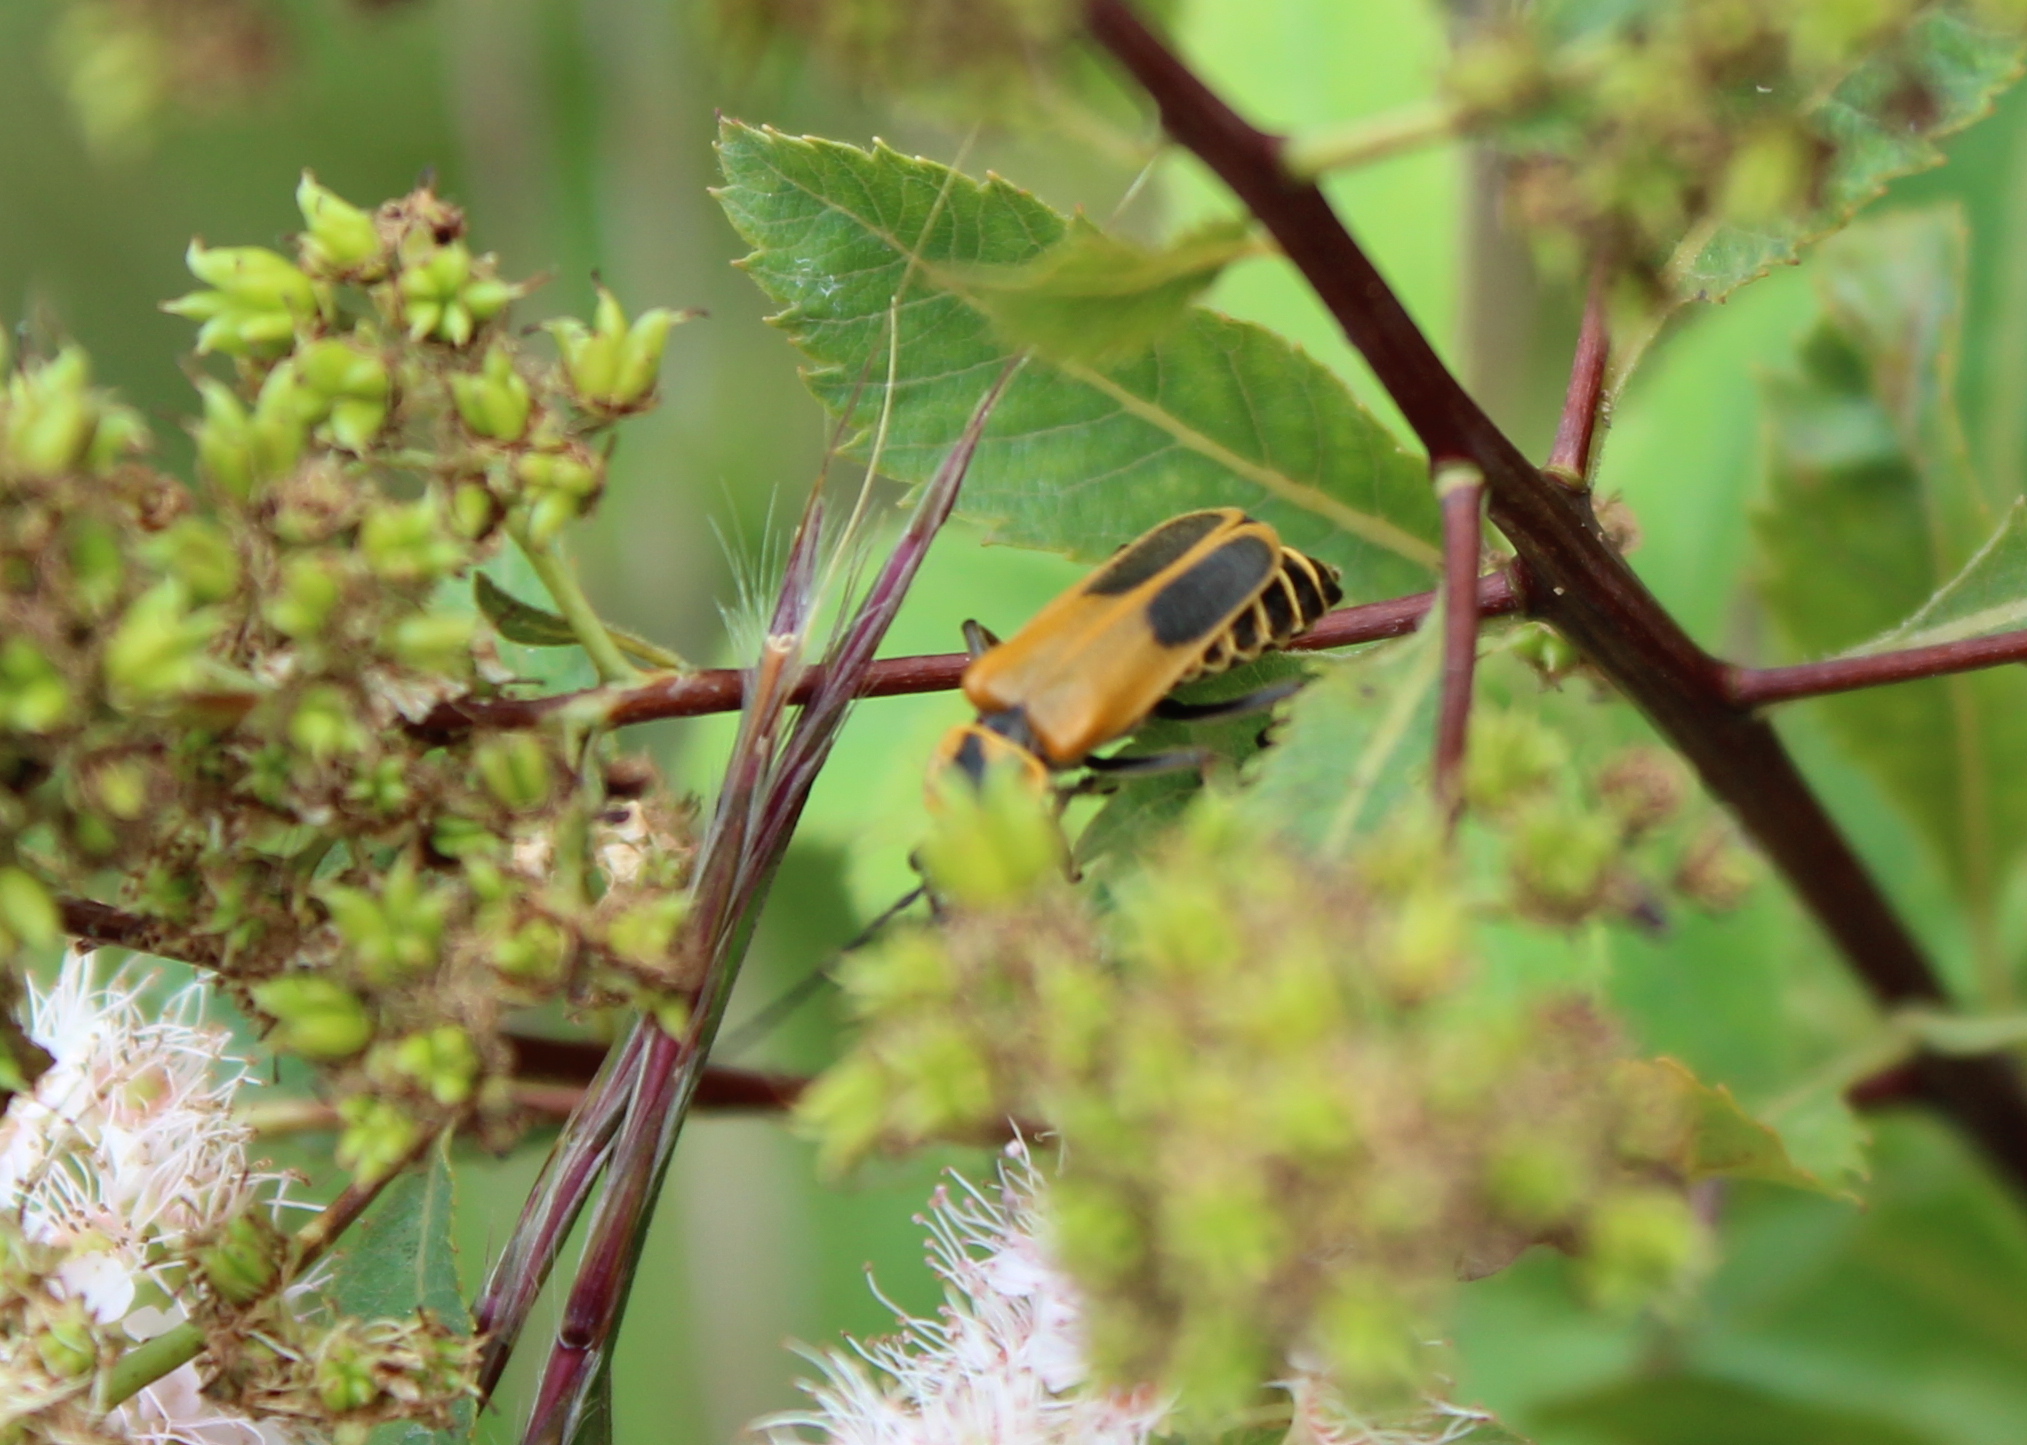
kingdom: Animalia
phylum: Arthropoda
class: Insecta
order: Coleoptera
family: Cantharidae
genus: Chauliognathus
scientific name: Chauliognathus pensylvanicus
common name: Goldenrod soldier beetle
